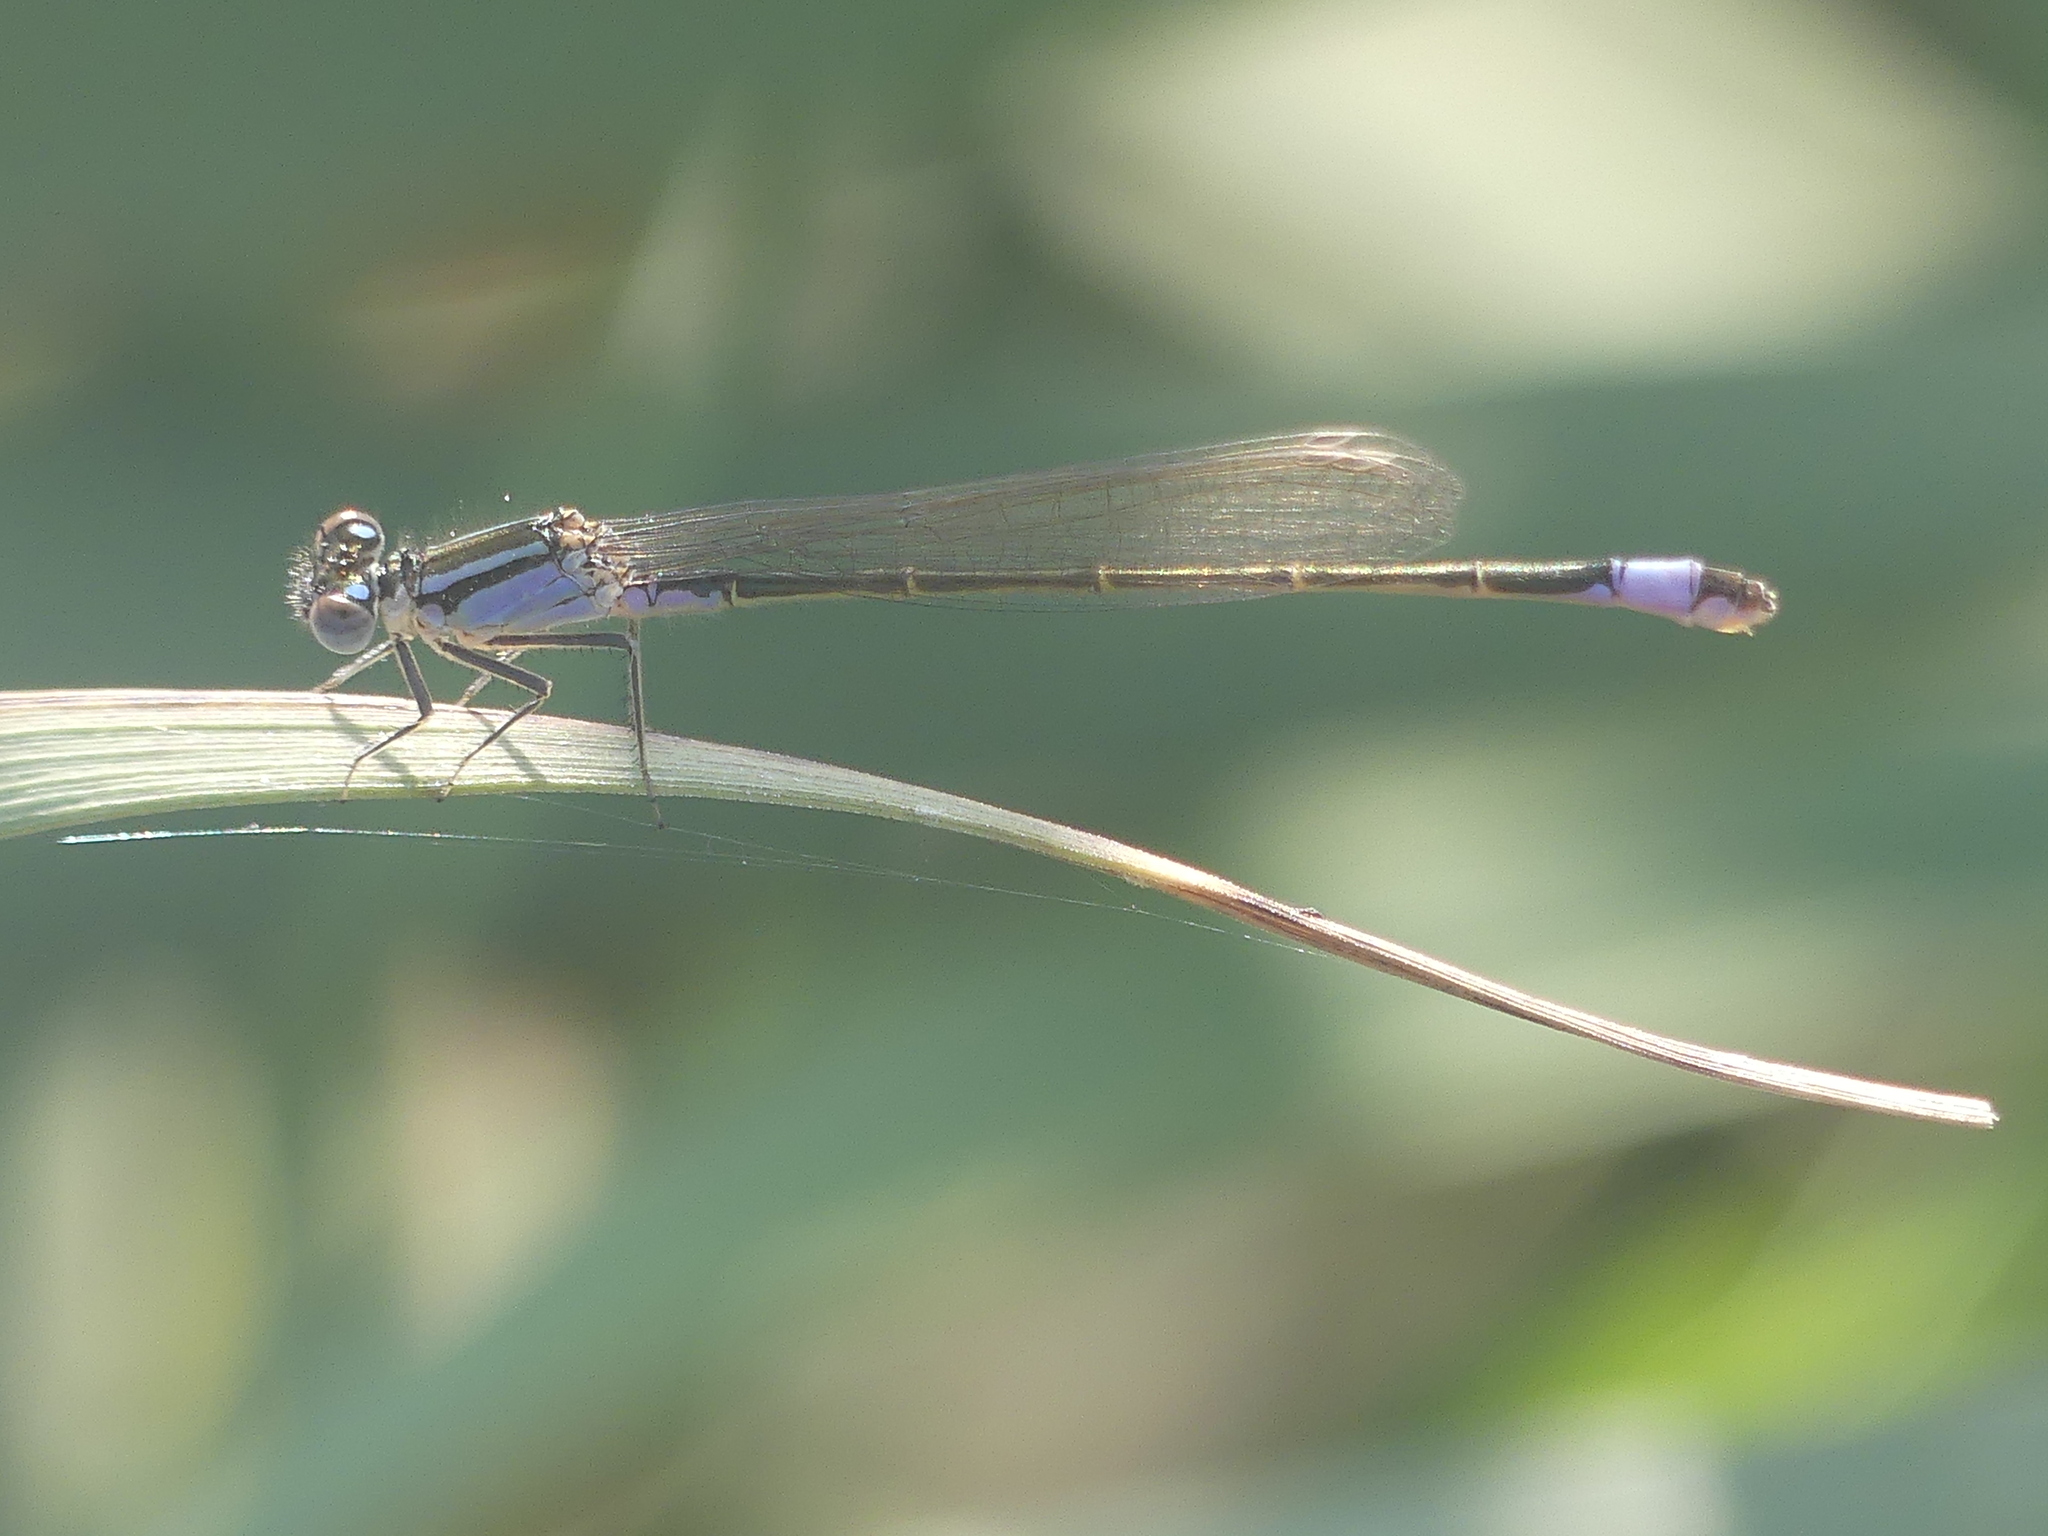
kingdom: Animalia
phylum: Arthropoda
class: Insecta
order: Odonata
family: Coenagrionidae
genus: Ischnura
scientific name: Ischnura elegans
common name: Blue-tailed damselfly
